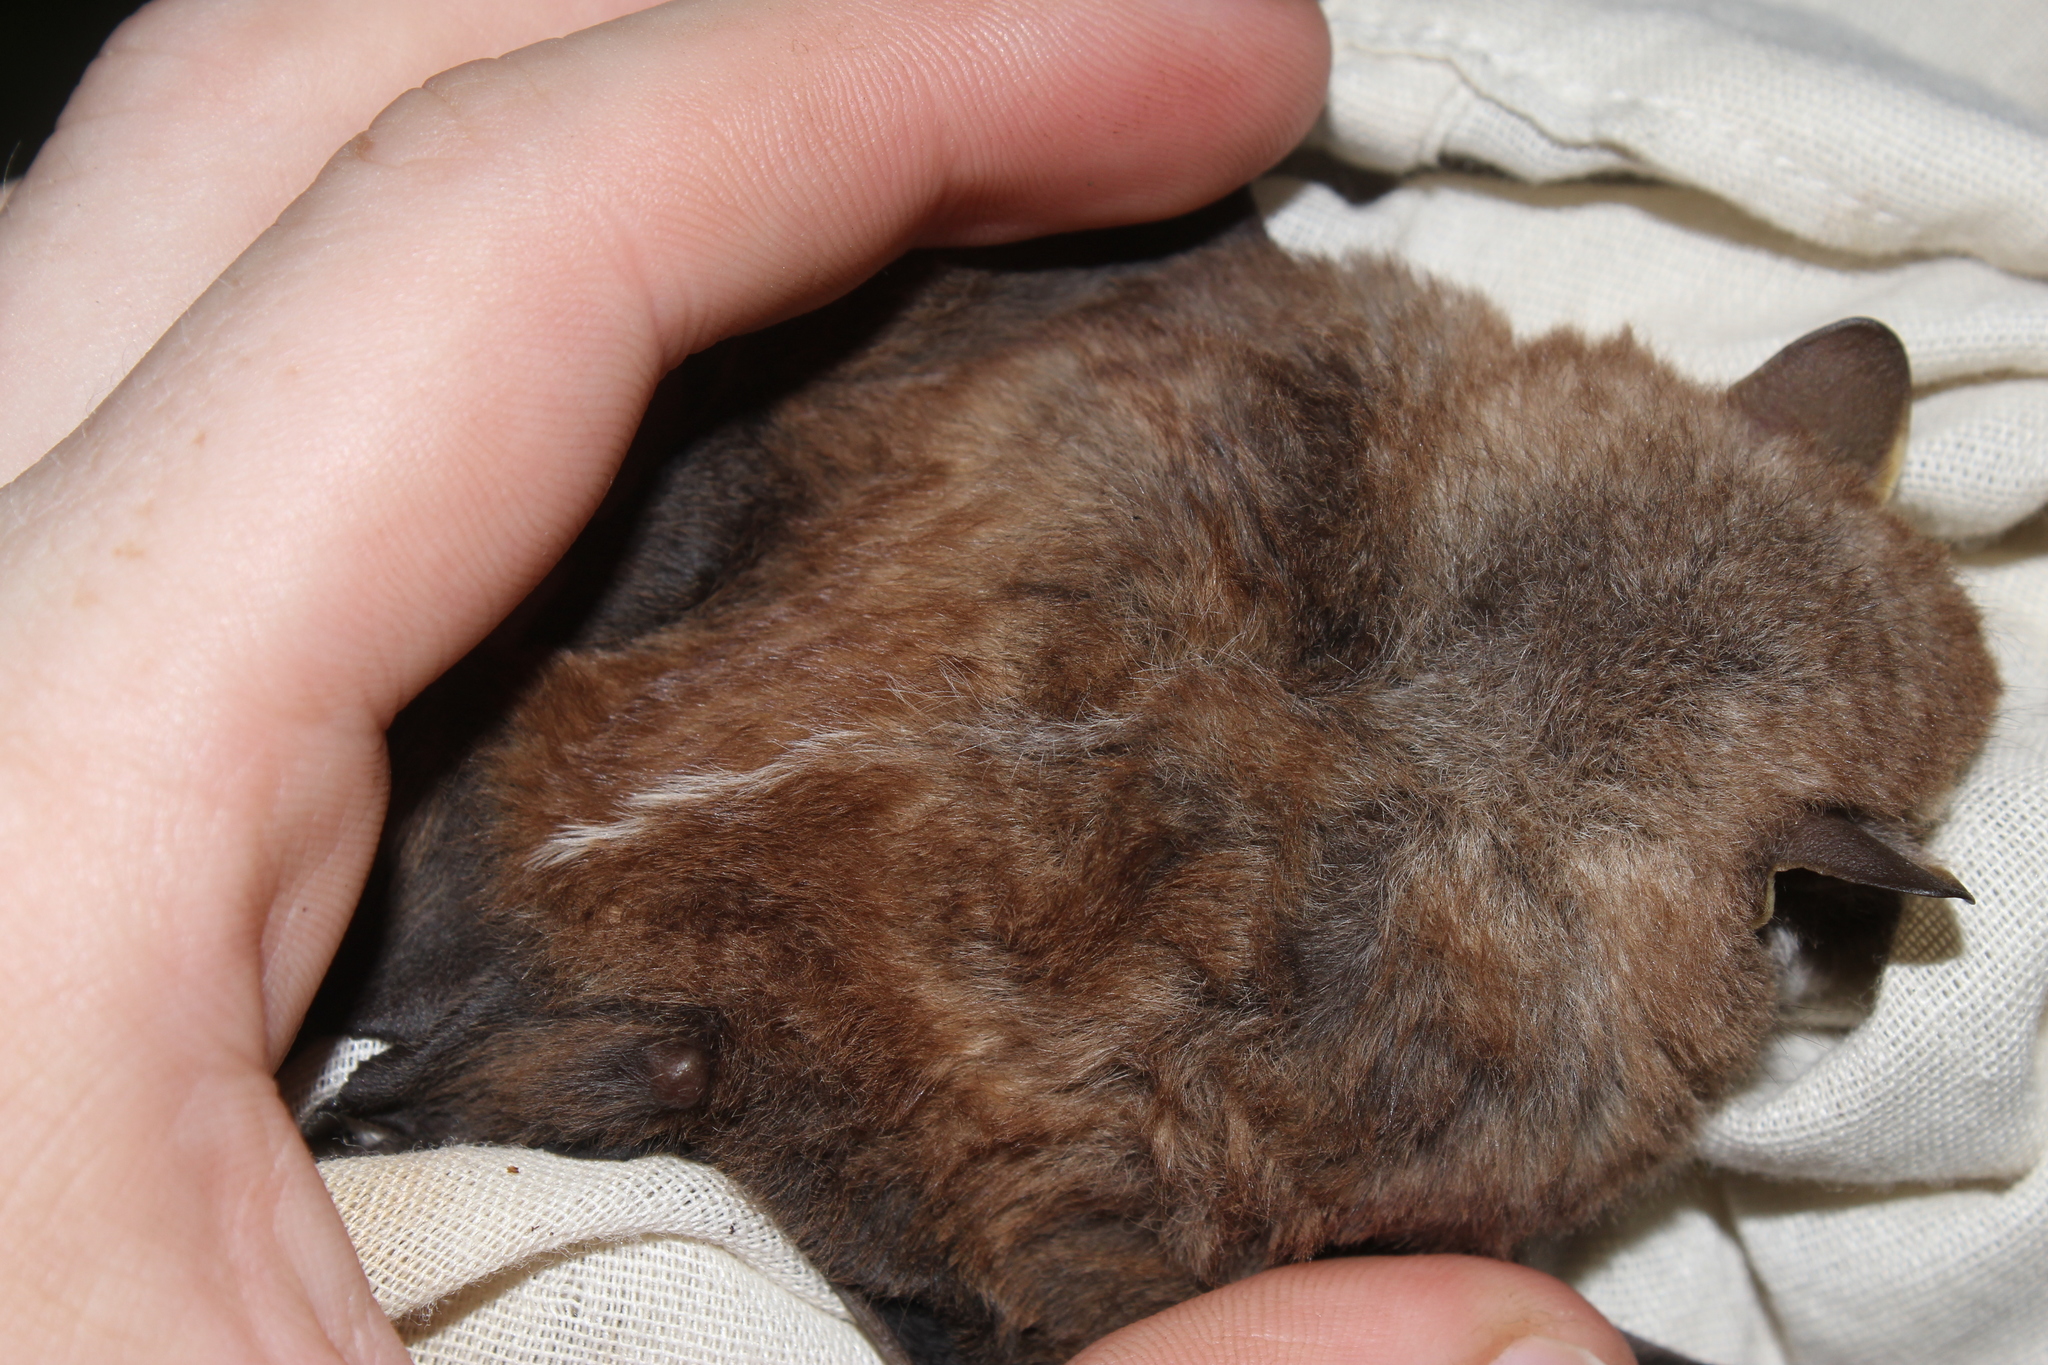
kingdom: Animalia
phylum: Chordata
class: Mammalia
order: Chiroptera
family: Phyllostomidae
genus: Chiroderma
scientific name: Chiroderma doriae
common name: Brazilian big-eyed bat
